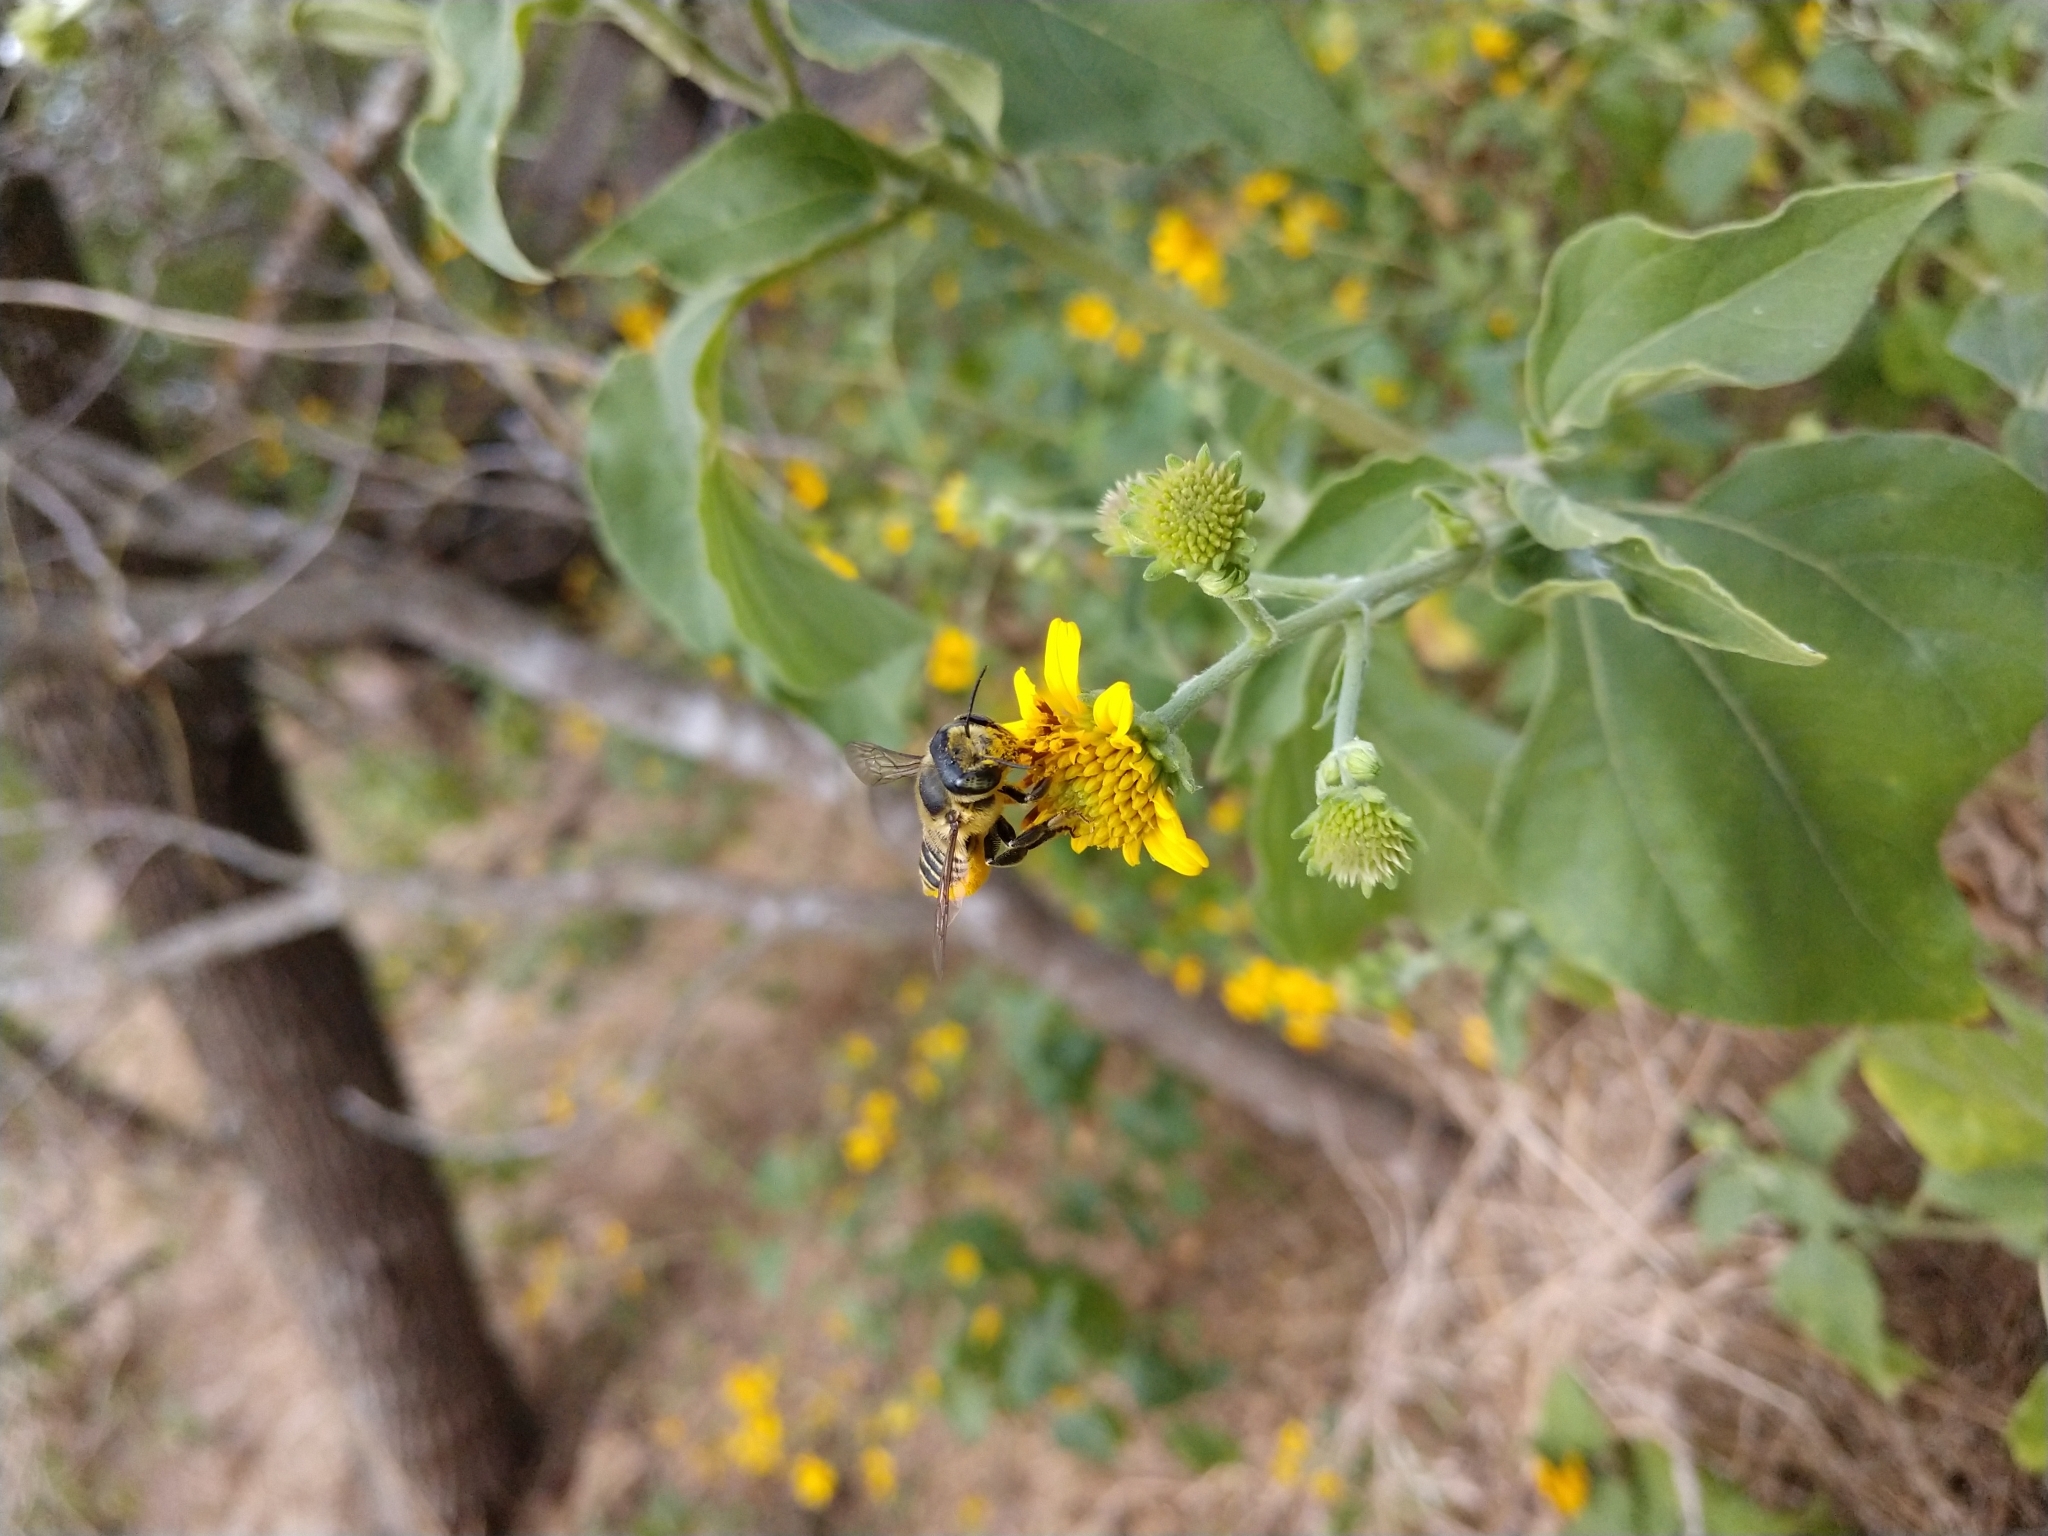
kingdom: Animalia
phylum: Arthropoda
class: Insecta
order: Hymenoptera
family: Megachilidae
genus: Megachile
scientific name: Megachile parallela
